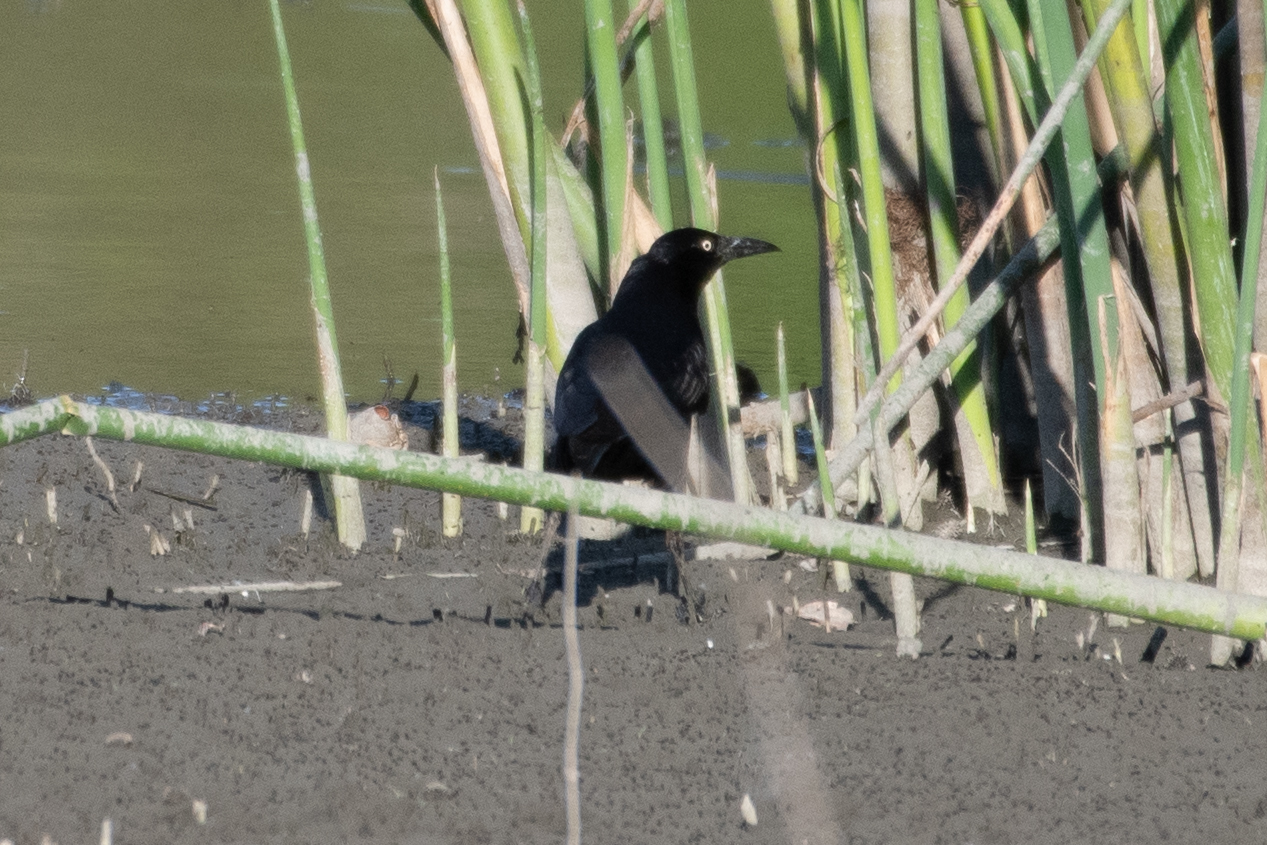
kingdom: Animalia
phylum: Chordata
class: Aves
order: Passeriformes
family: Icteridae
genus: Quiscalus
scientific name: Quiscalus mexicanus
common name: Great-tailed grackle
